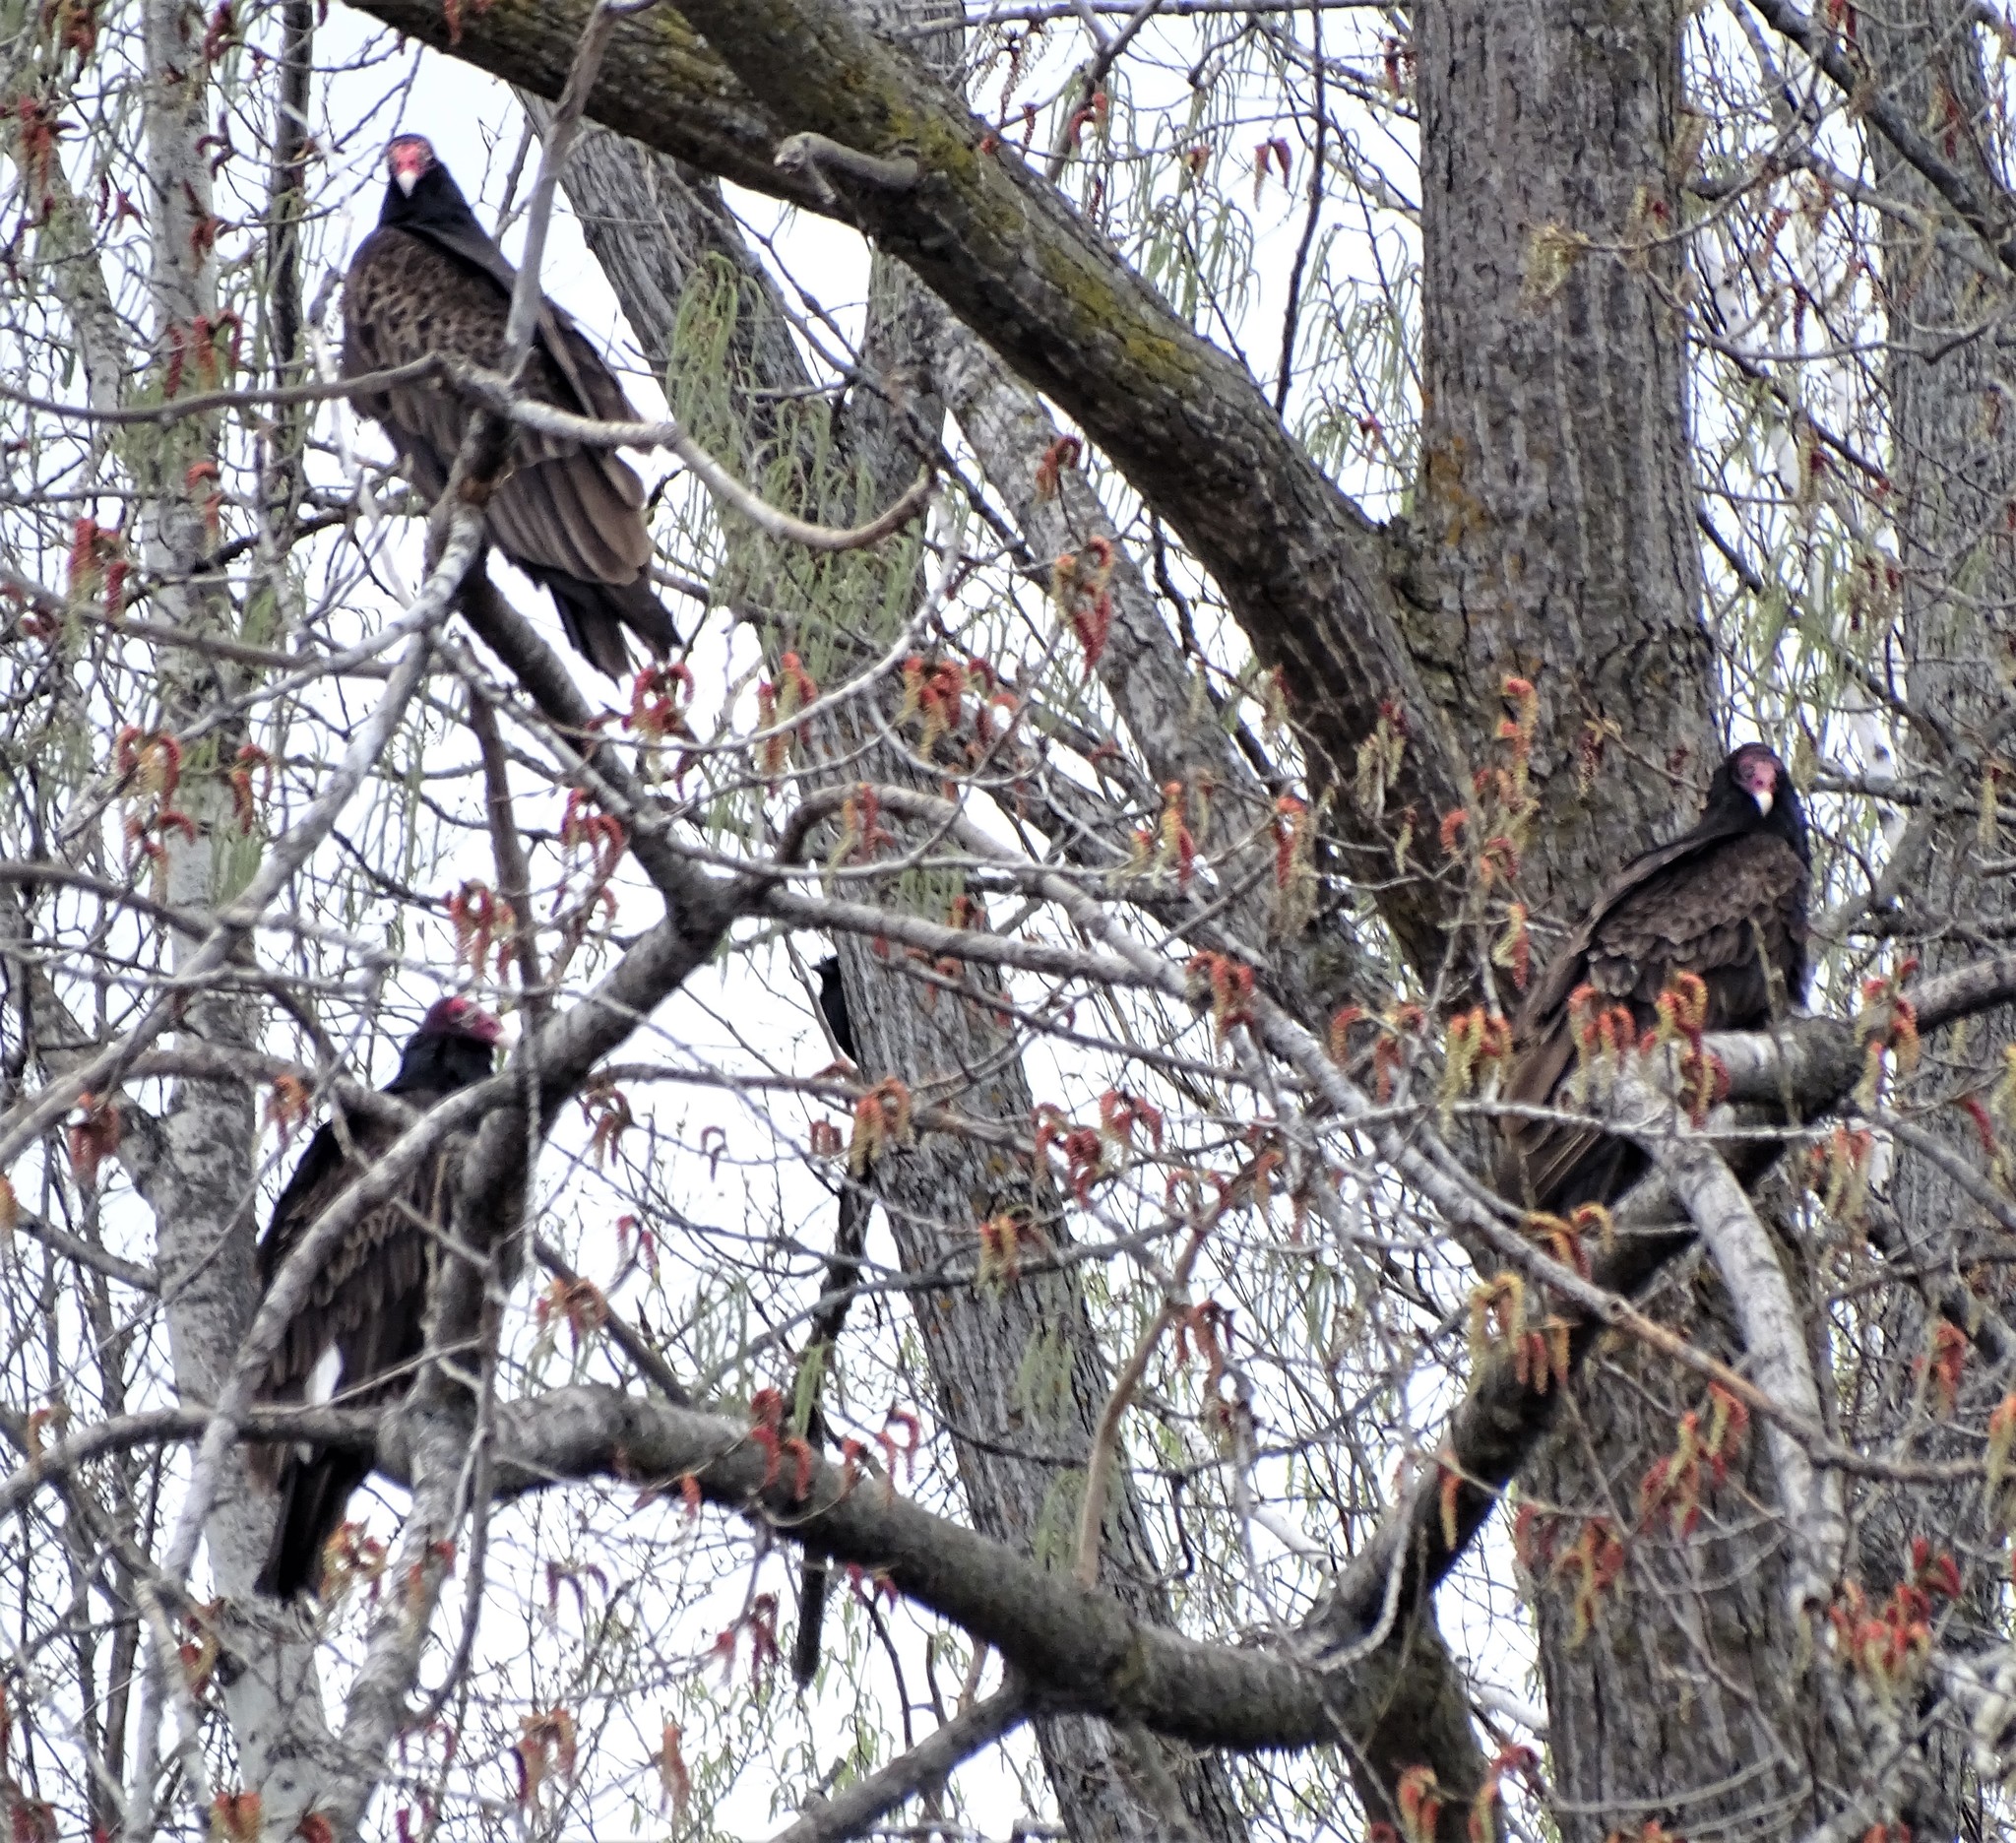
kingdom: Animalia
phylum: Chordata
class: Aves
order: Accipitriformes
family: Cathartidae
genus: Cathartes
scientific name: Cathartes aura
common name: Turkey vulture
